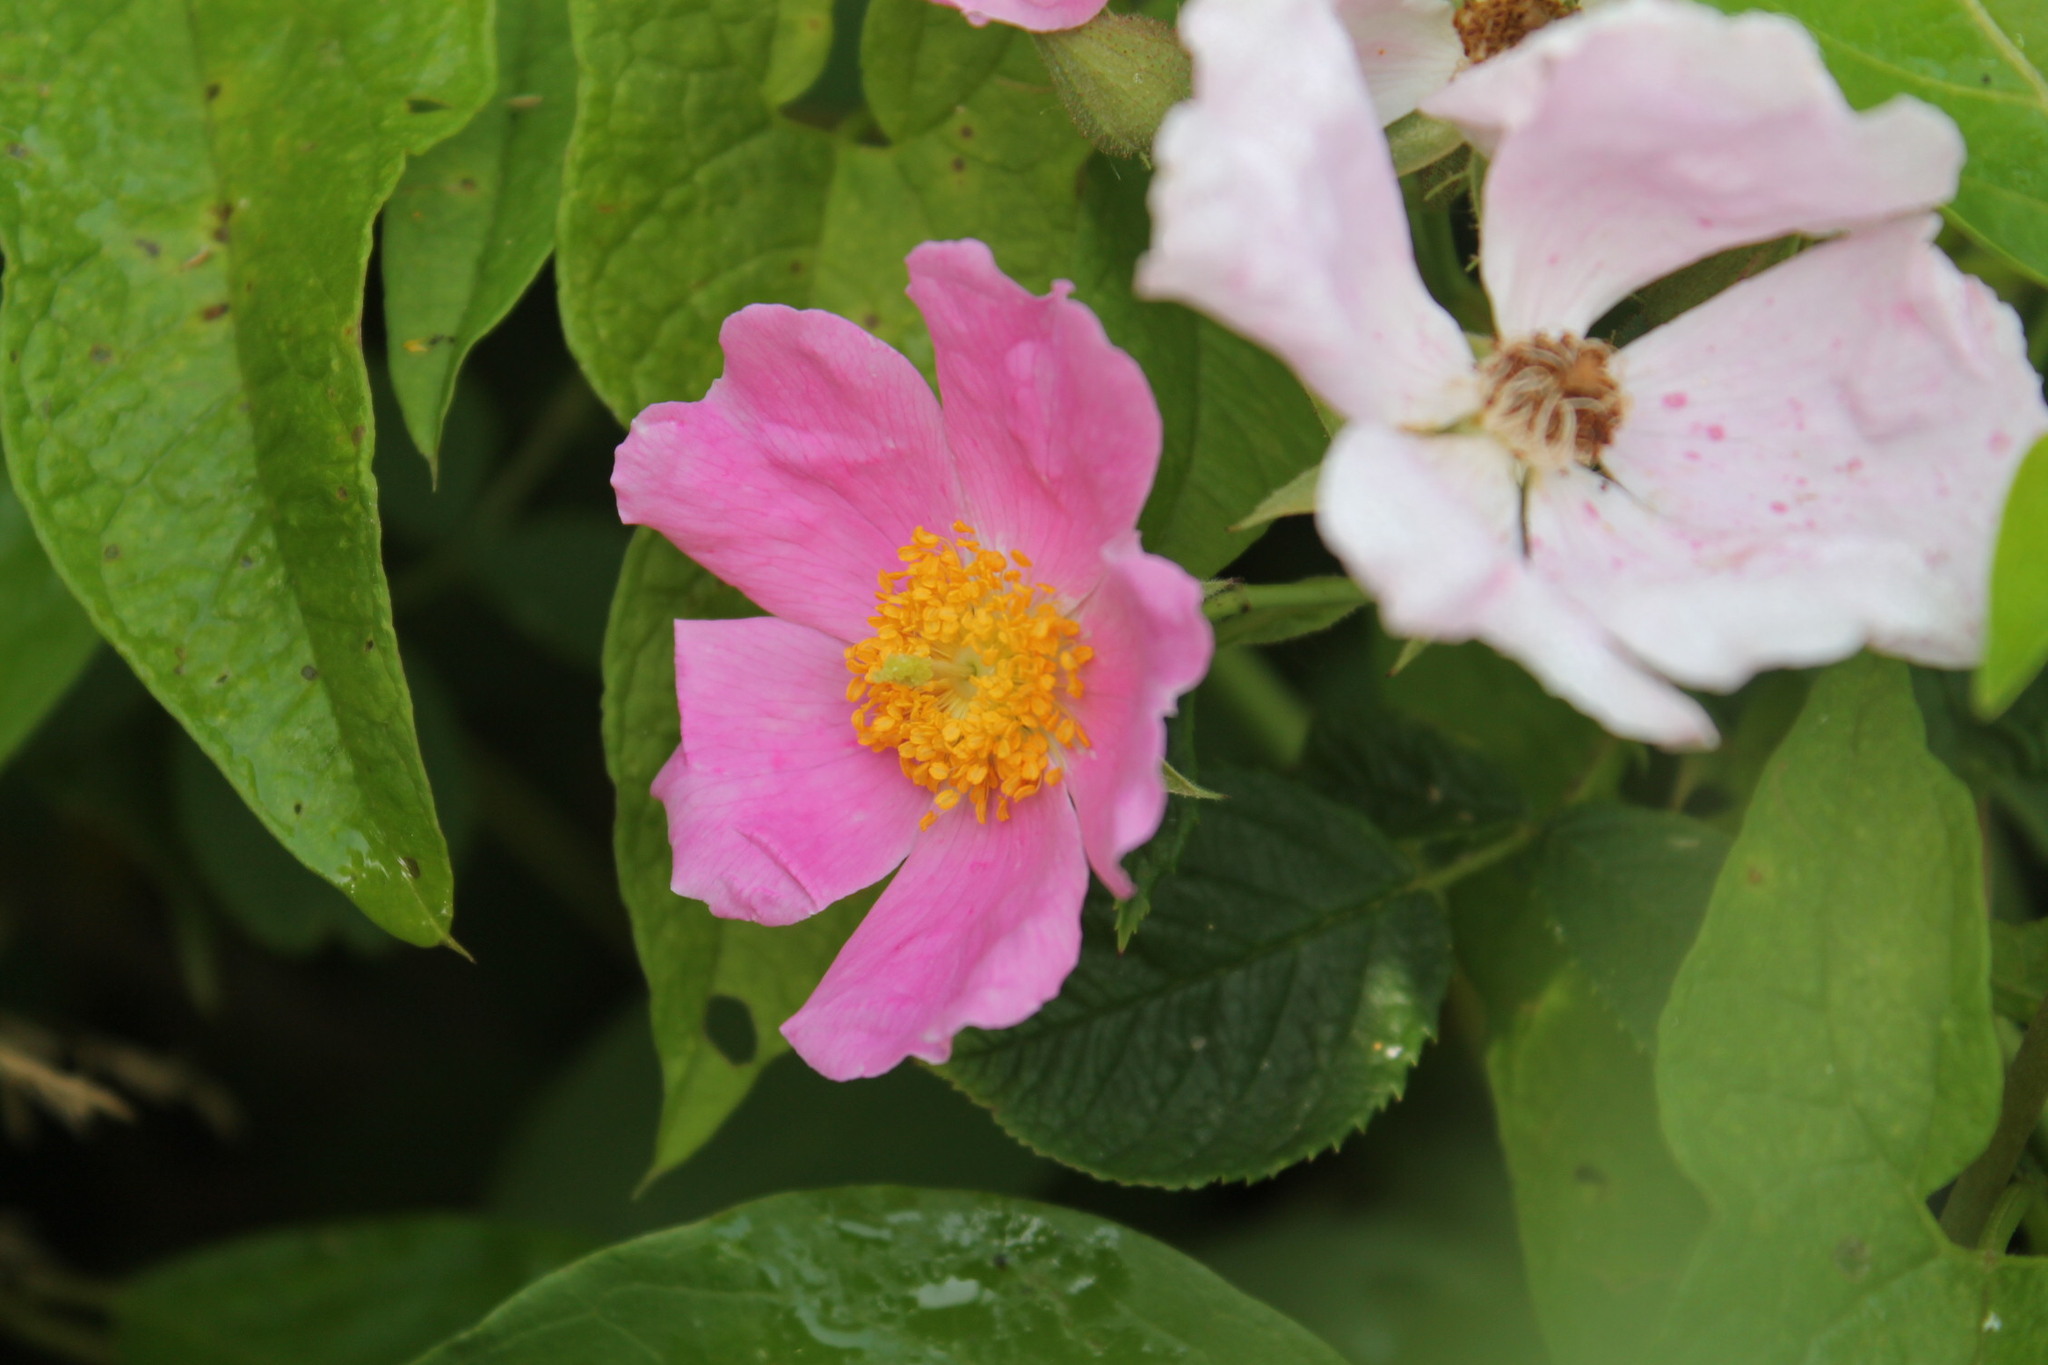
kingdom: Plantae
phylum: Tracheophyta
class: Magnoliopsida
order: Rosales
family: Rosaceae
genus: Rosa
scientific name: Rosa setigera
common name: Prairie rose
